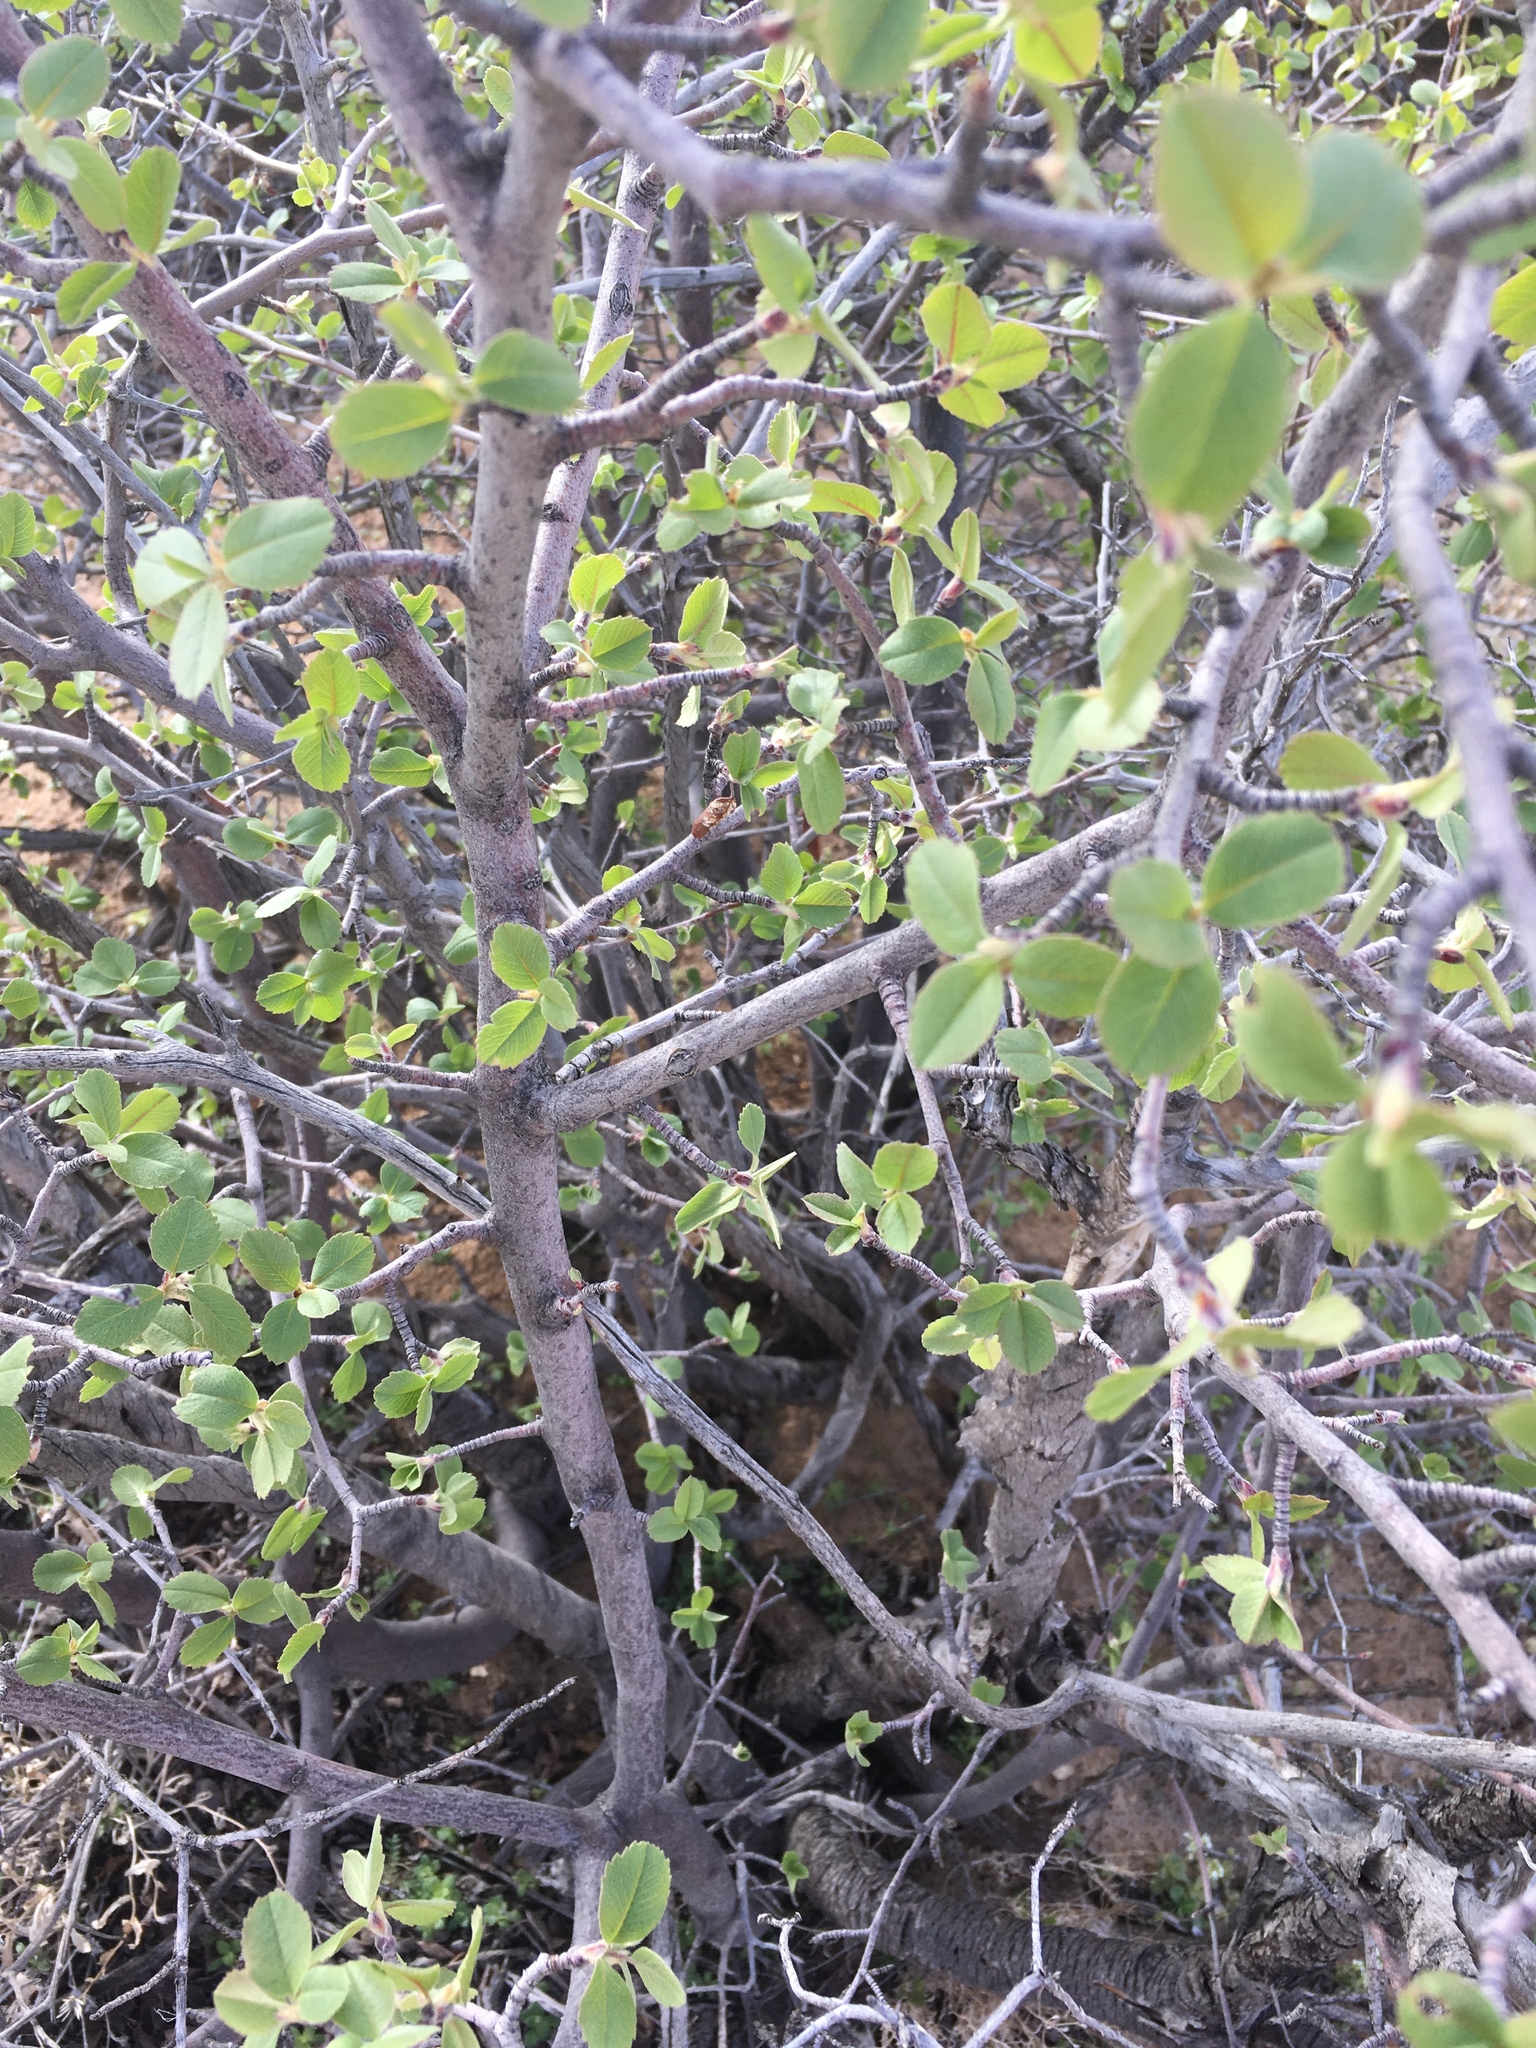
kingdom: Plantae
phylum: Tracheophyta
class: Magnoliopsida
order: Rosales
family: Rosaceae
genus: Amelanchier
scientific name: Amelanchier utahensis
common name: Utah serviceberry
